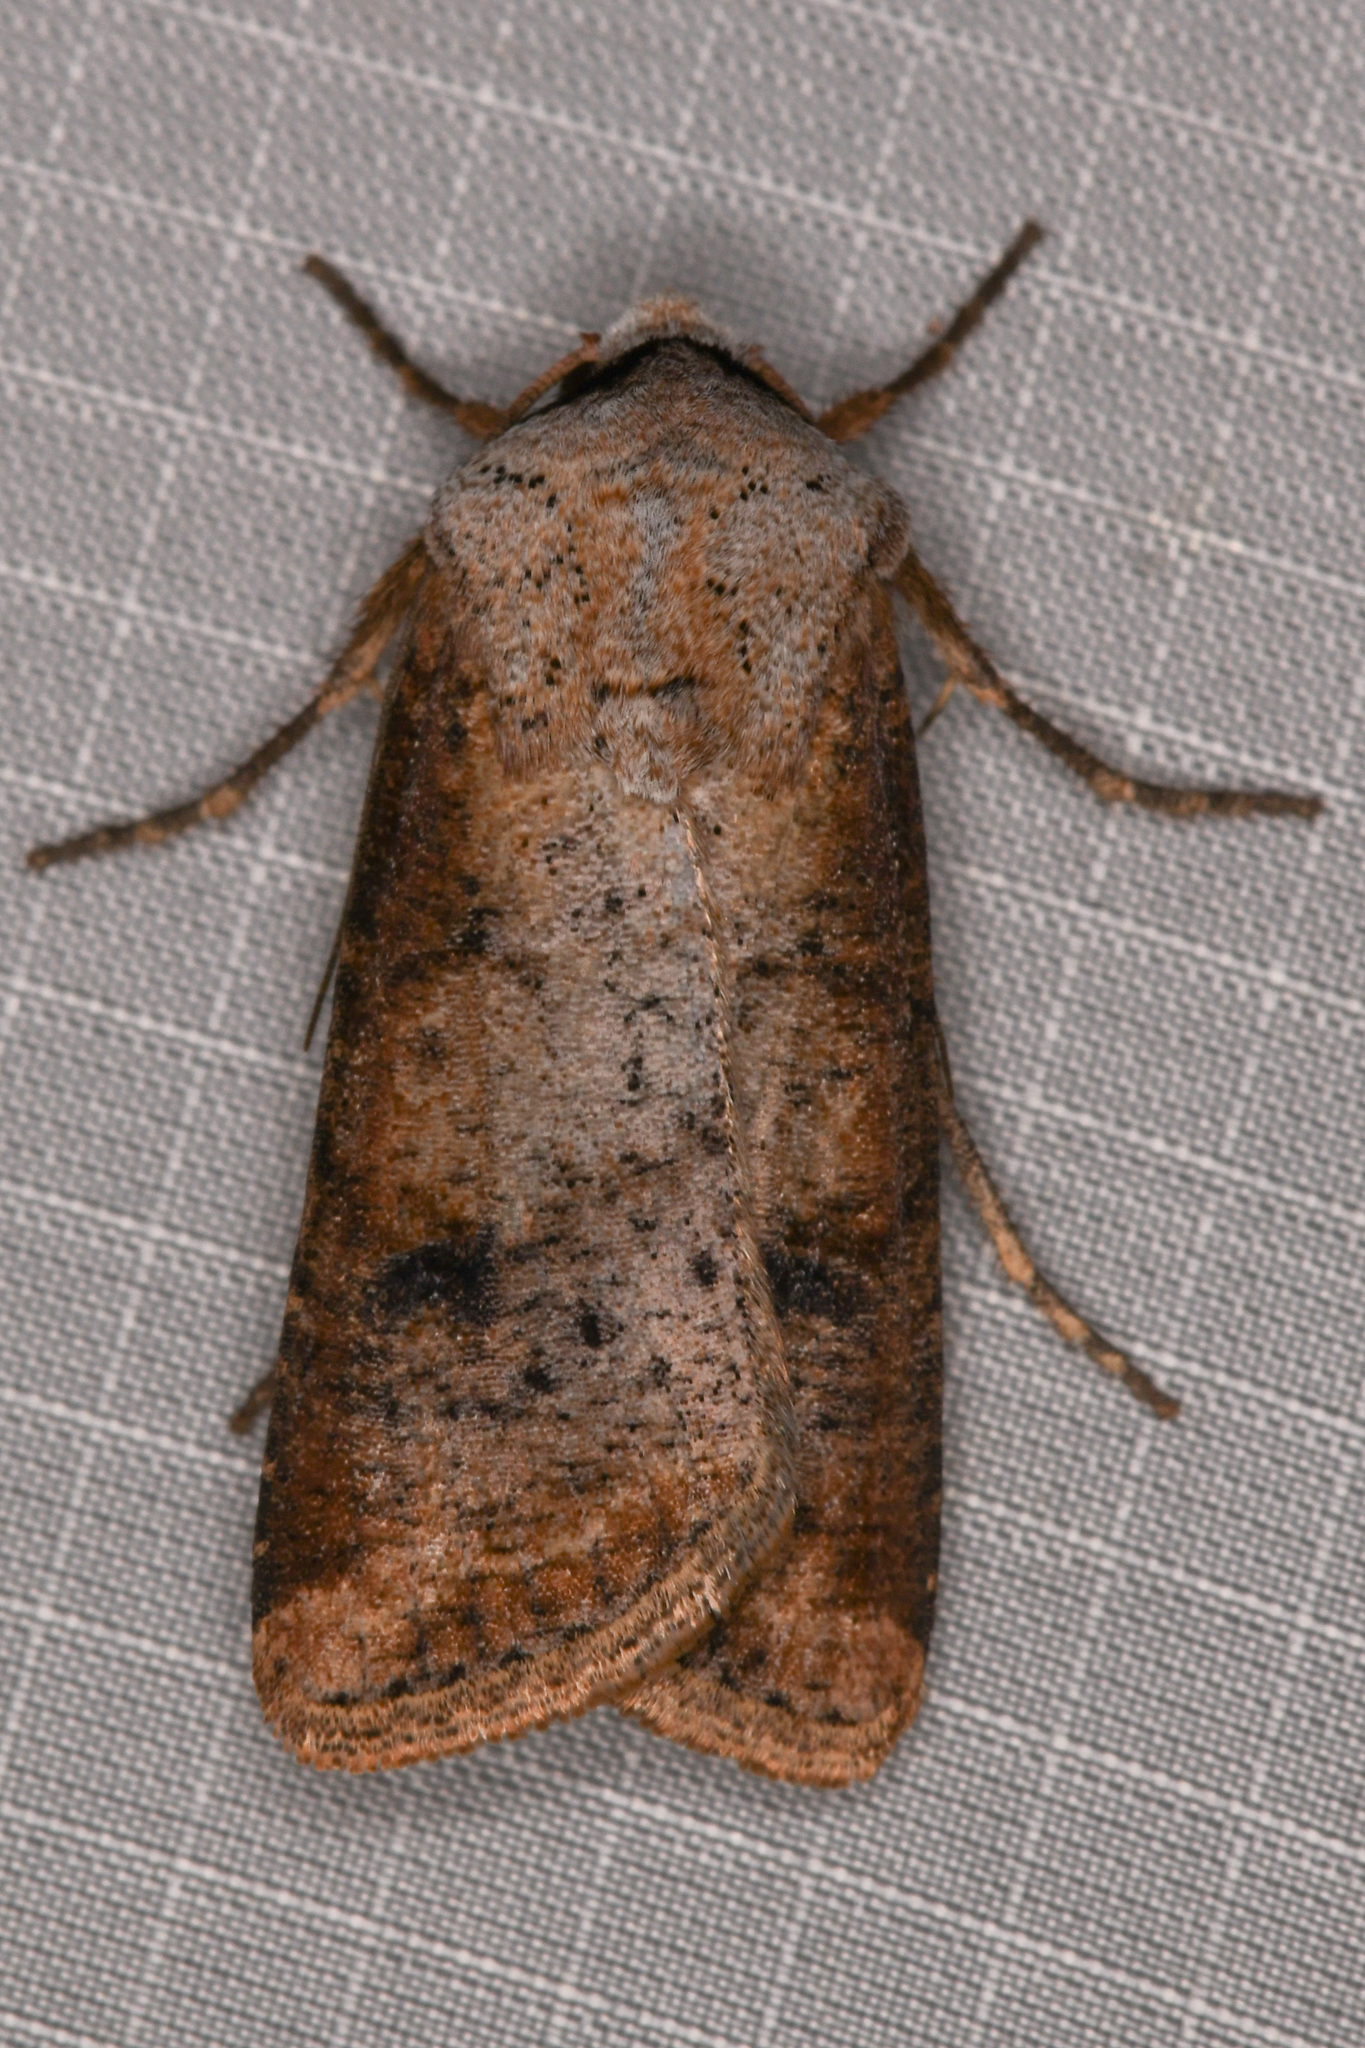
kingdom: Animalia
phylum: Arthropoda
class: Insecta
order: Lepidoptera
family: Noctuidae
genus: Euxoa
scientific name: Euxoa bochus
